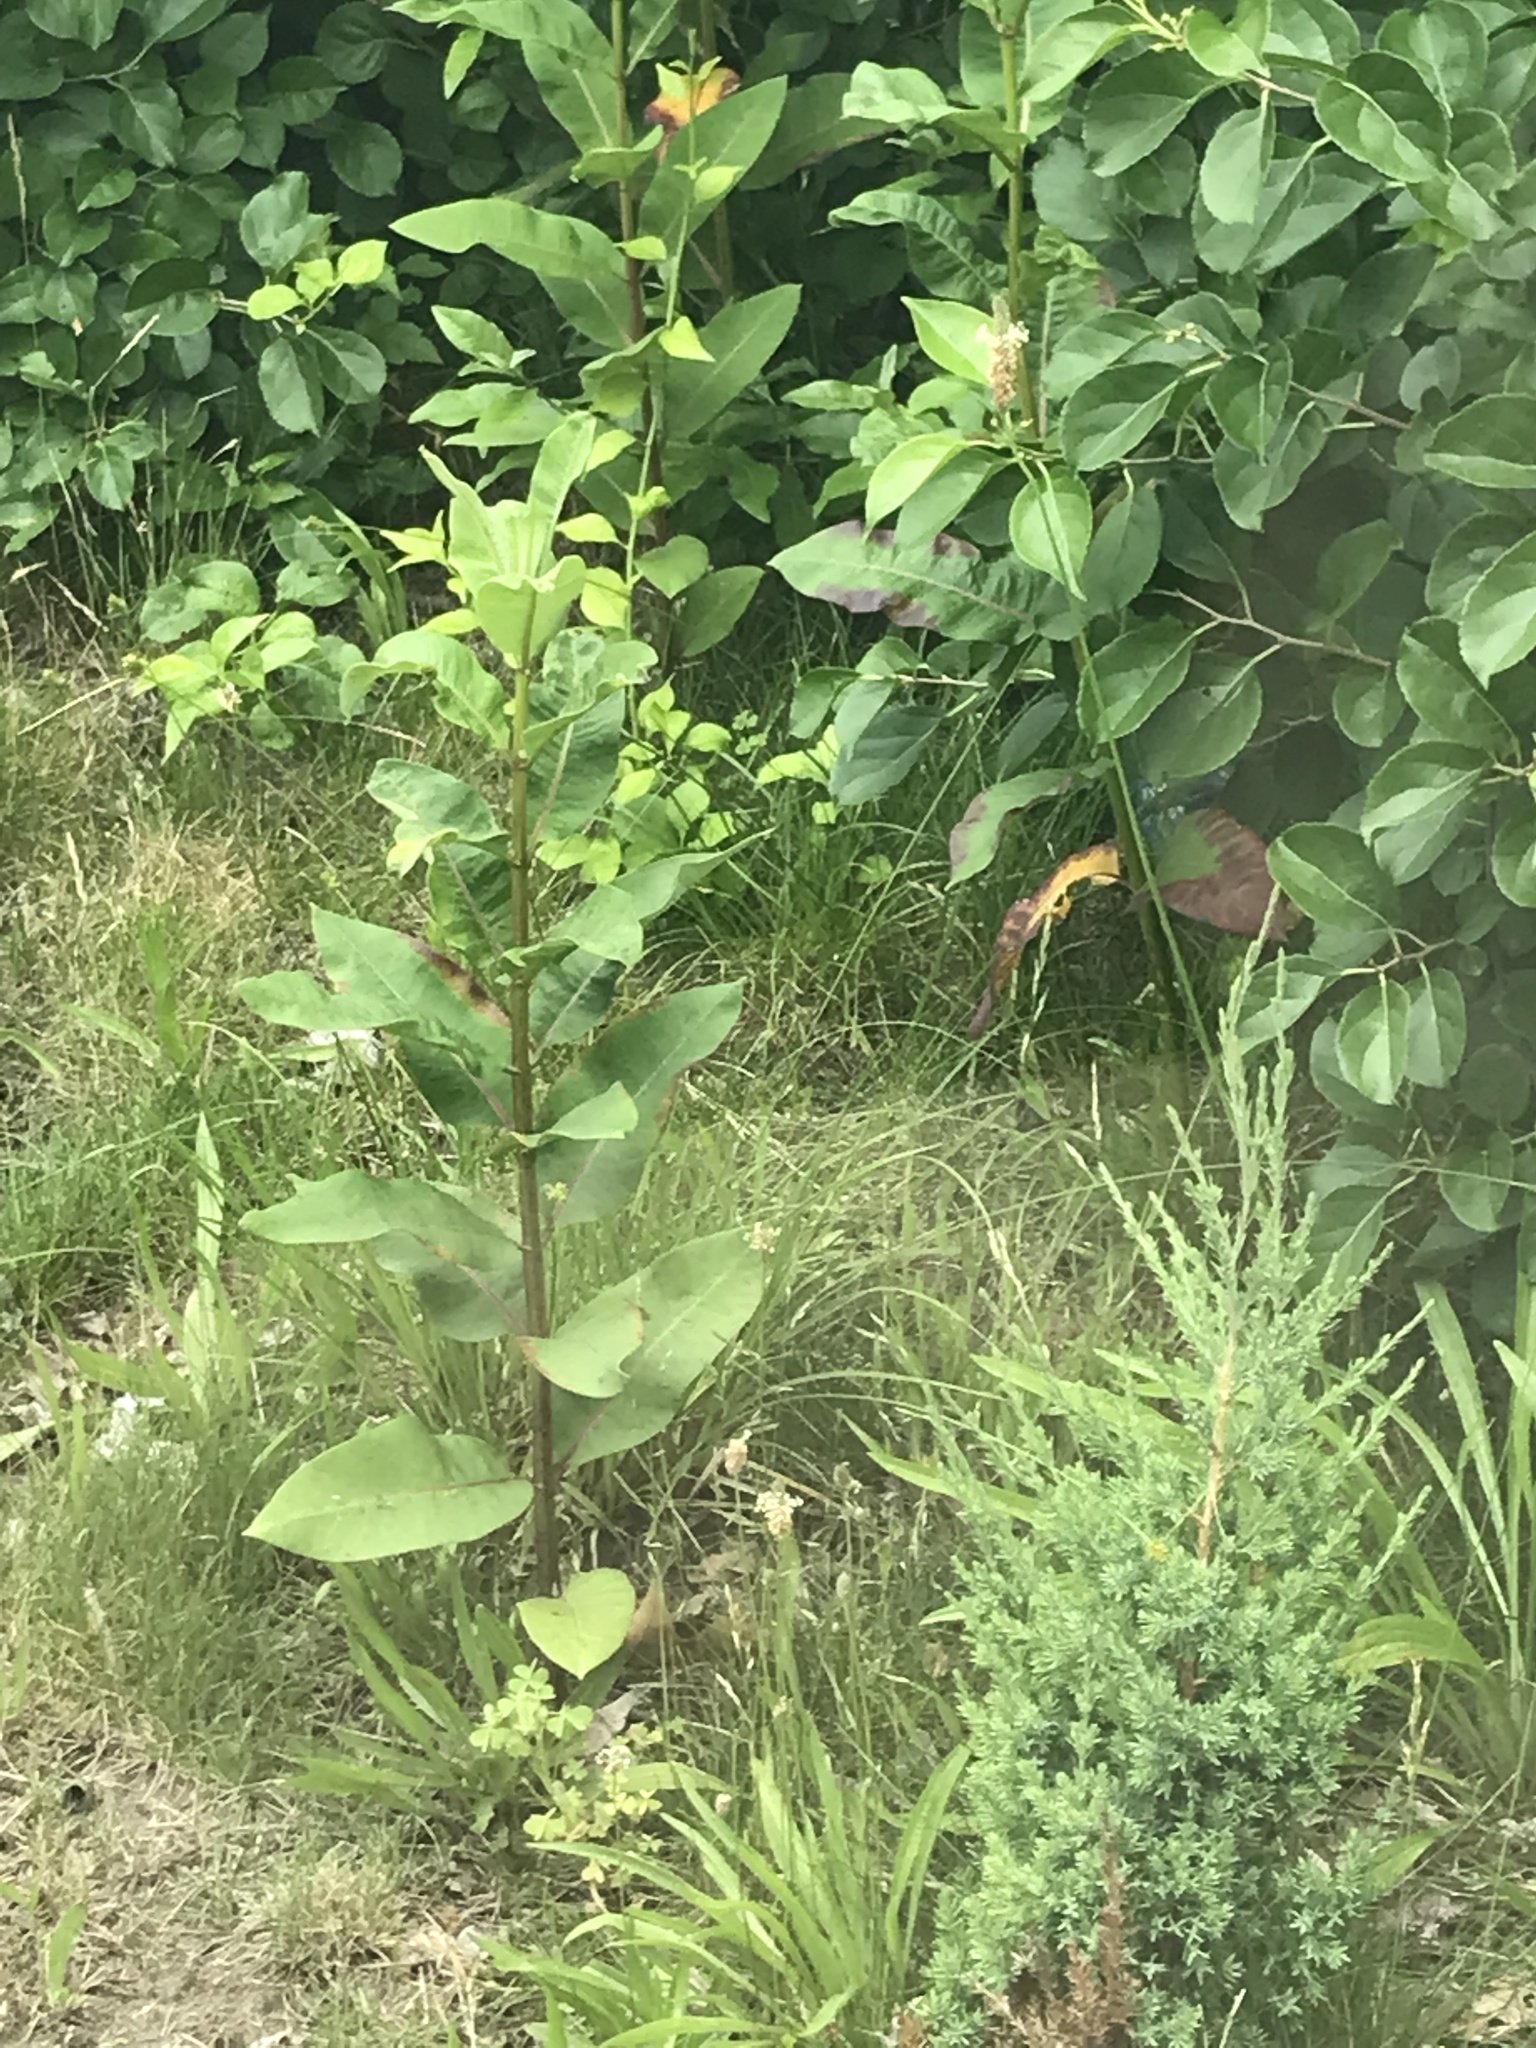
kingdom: Plantae
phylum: Tracheophyta
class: Magnoliopsida
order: Gentianales
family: Apocynaceae
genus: Asclepias
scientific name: Asclepias syriaca
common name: Common milkweed
